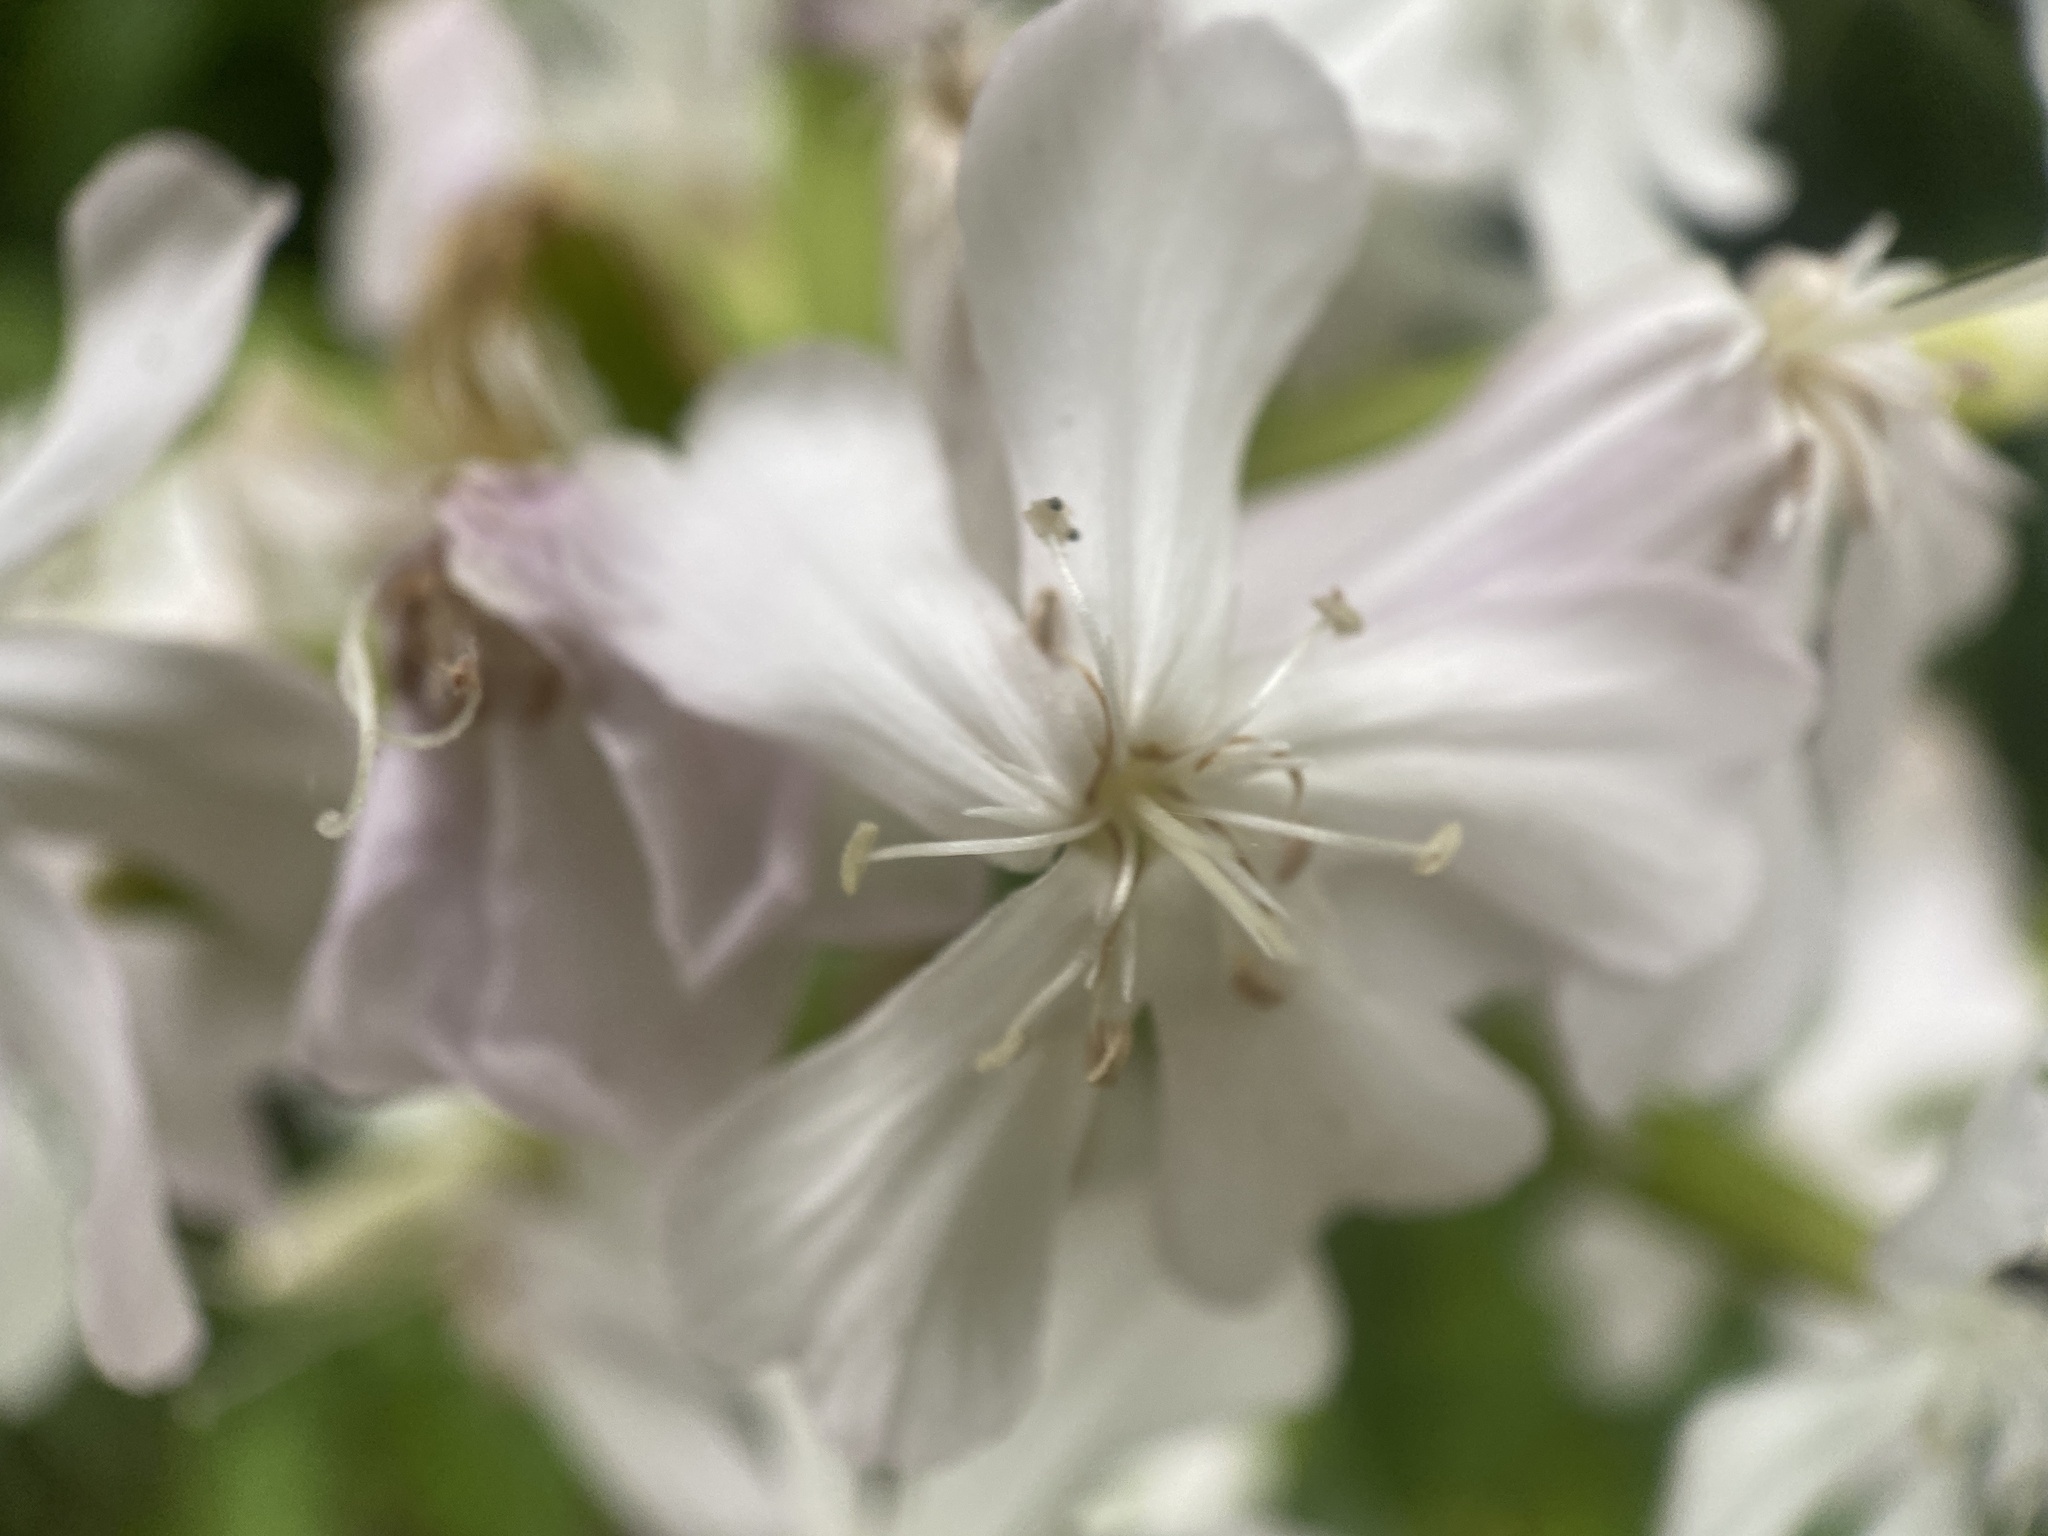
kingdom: Plantae
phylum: Tracheophyta
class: Magnoliopsida
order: Caryophyllales
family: Caryophyllaceae
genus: Saponaria
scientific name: Saponaria officinalis
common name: Soapwort
